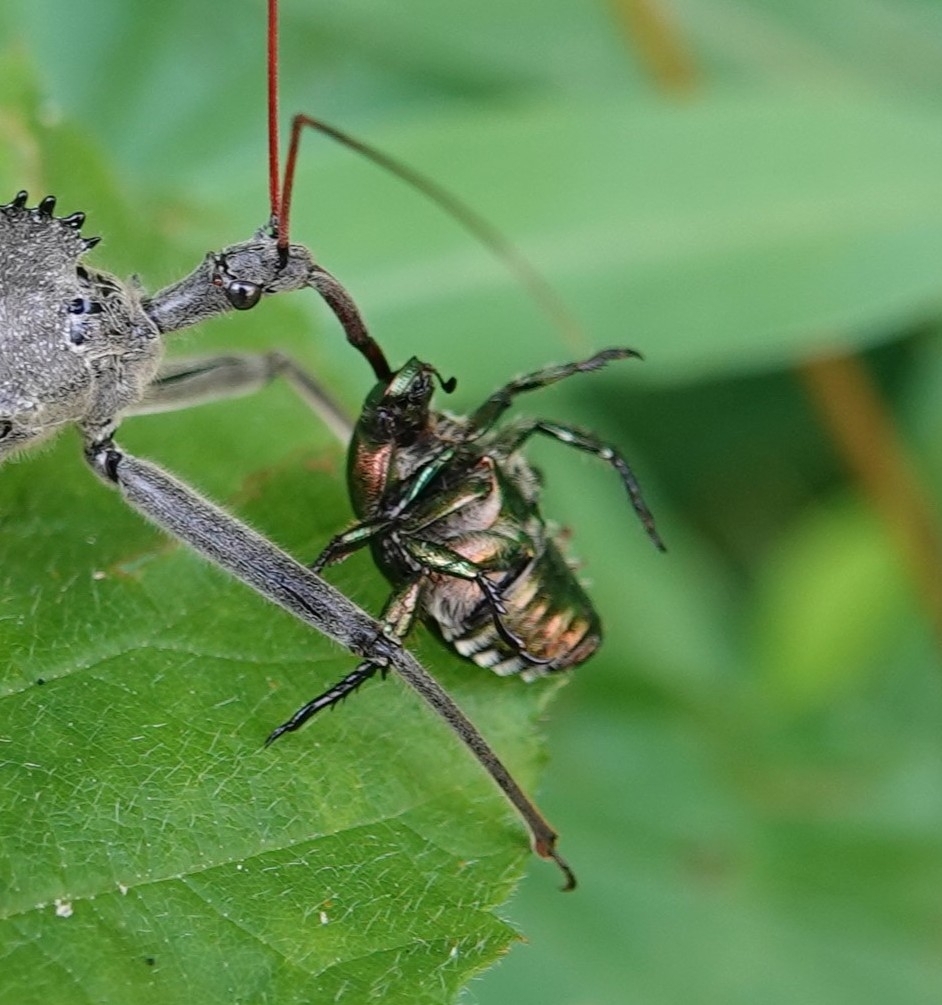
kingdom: Animalia
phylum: Arthropoda
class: Insecta
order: Coleoptera
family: Scarabaeidae
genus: Popillia
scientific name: Popillia japonica
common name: Japanese beetle
